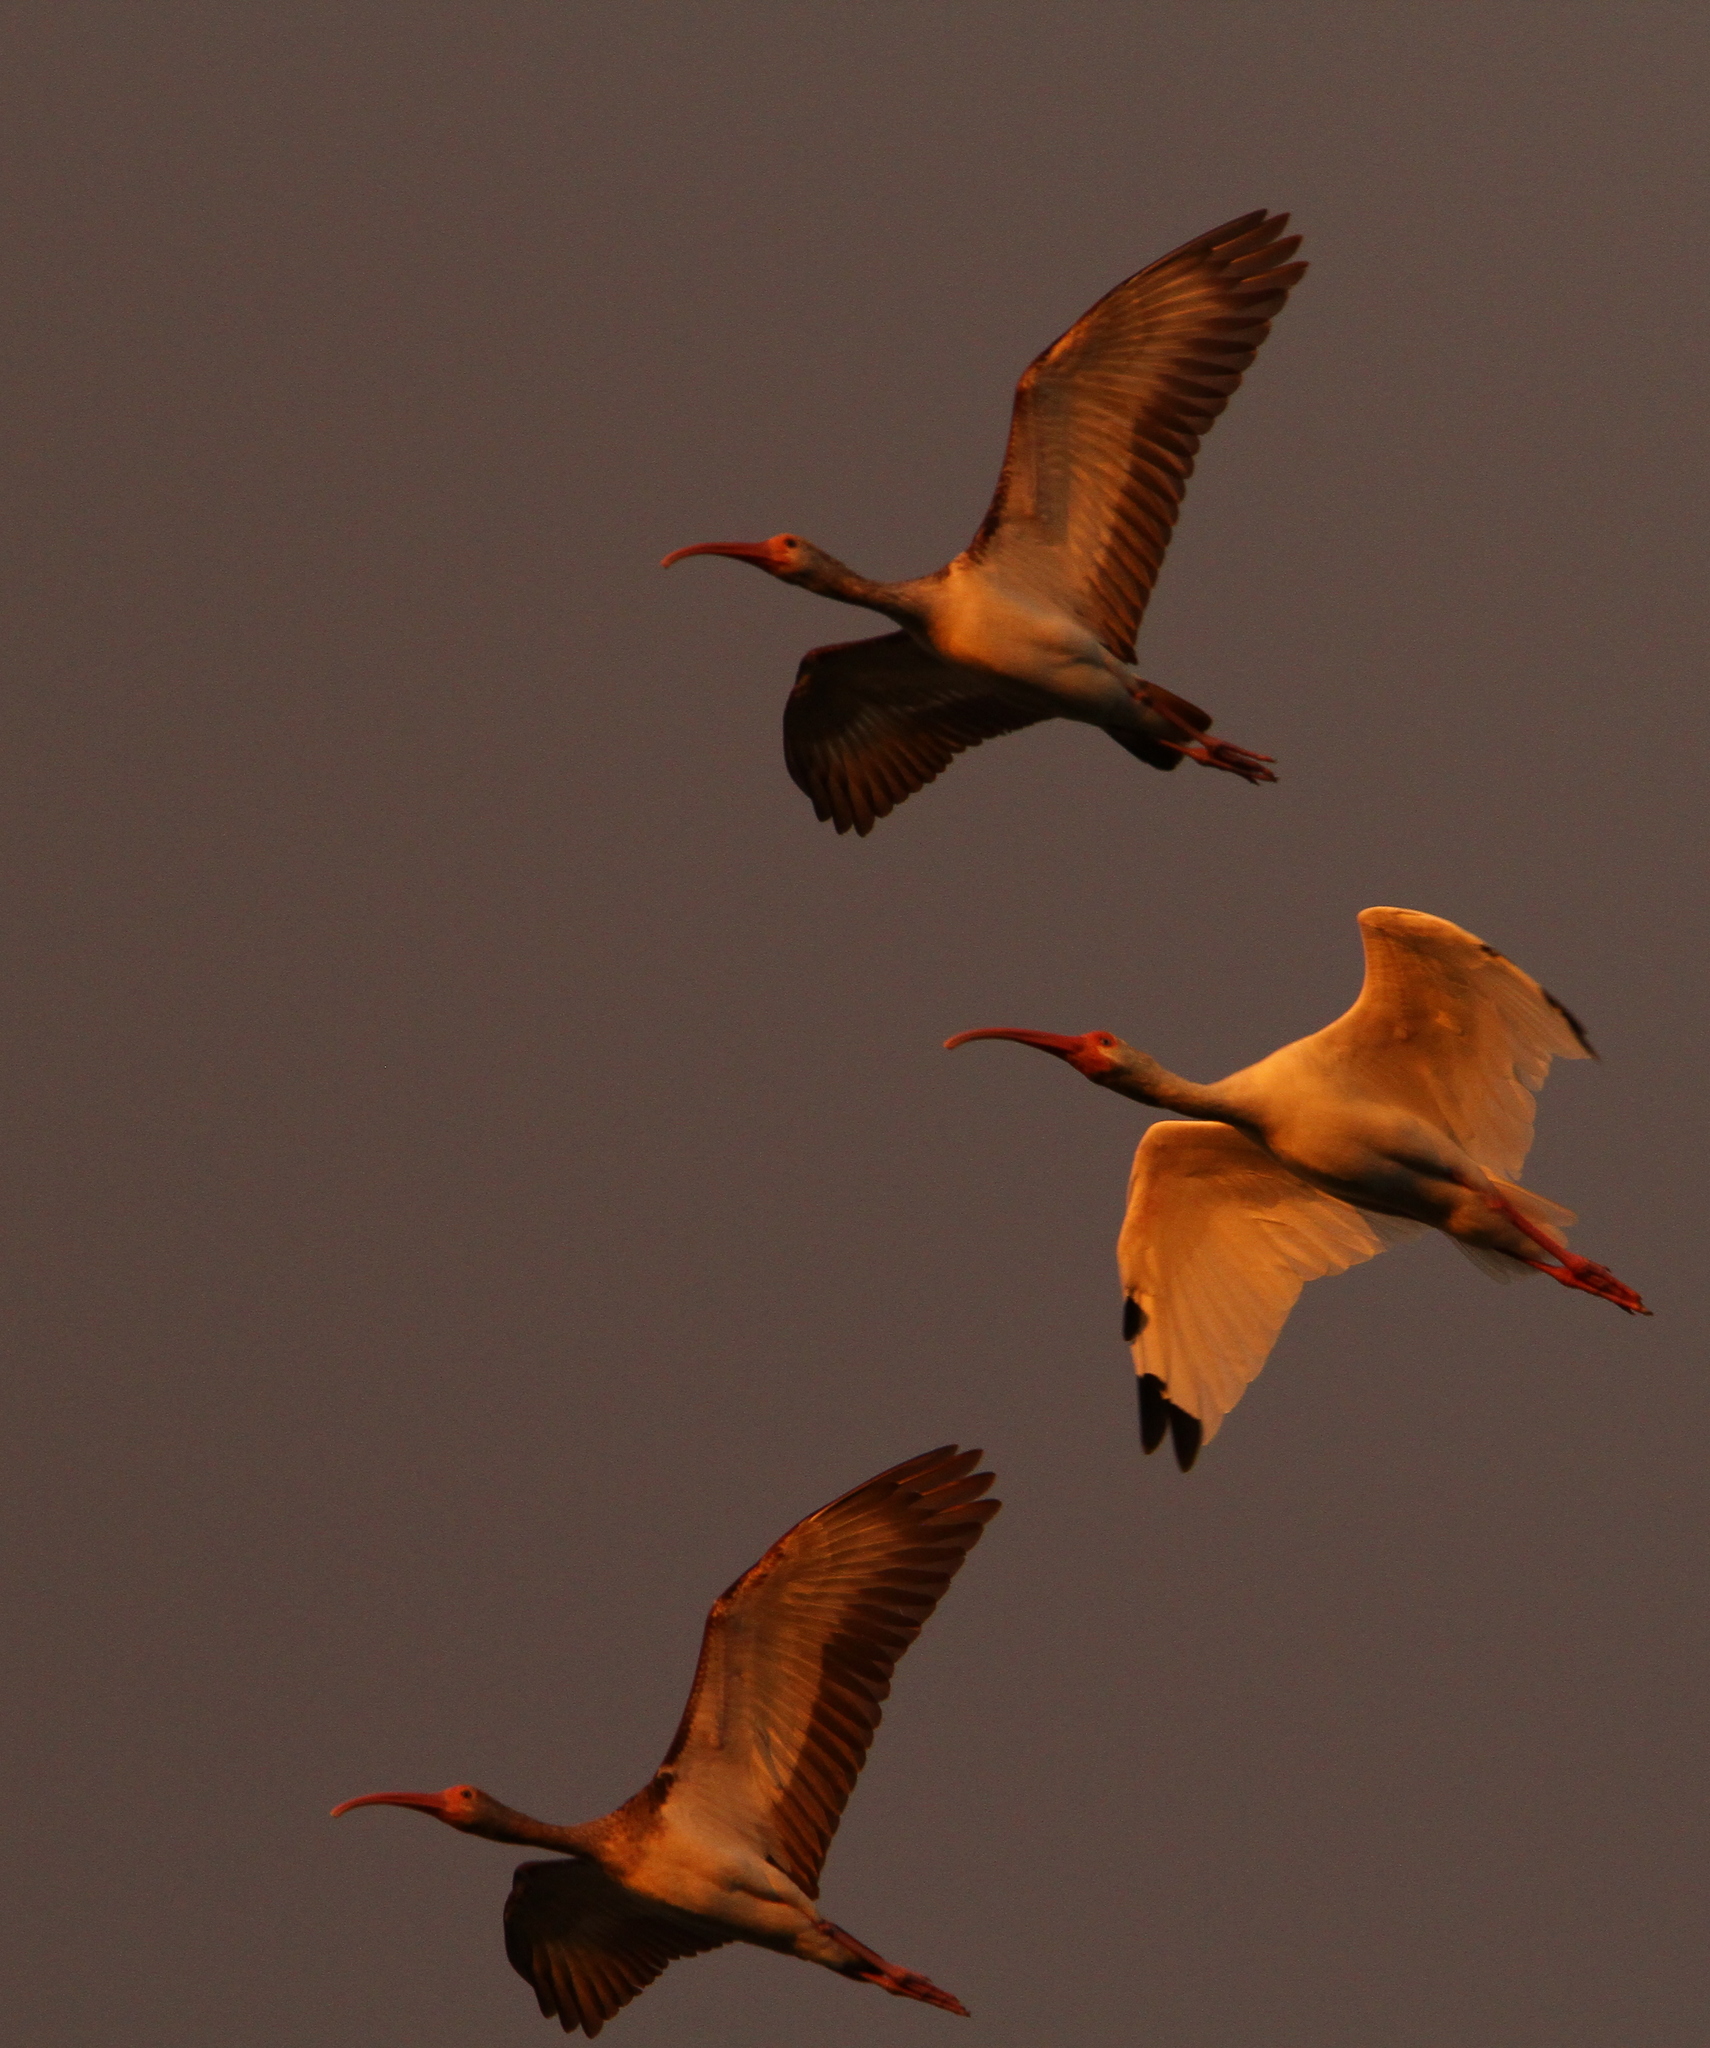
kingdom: Animalia
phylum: Chordata
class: Aves
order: Pelecaniformes
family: Threskiornithidae
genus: Eudocimus
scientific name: Eudocimus albus
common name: White ibis
